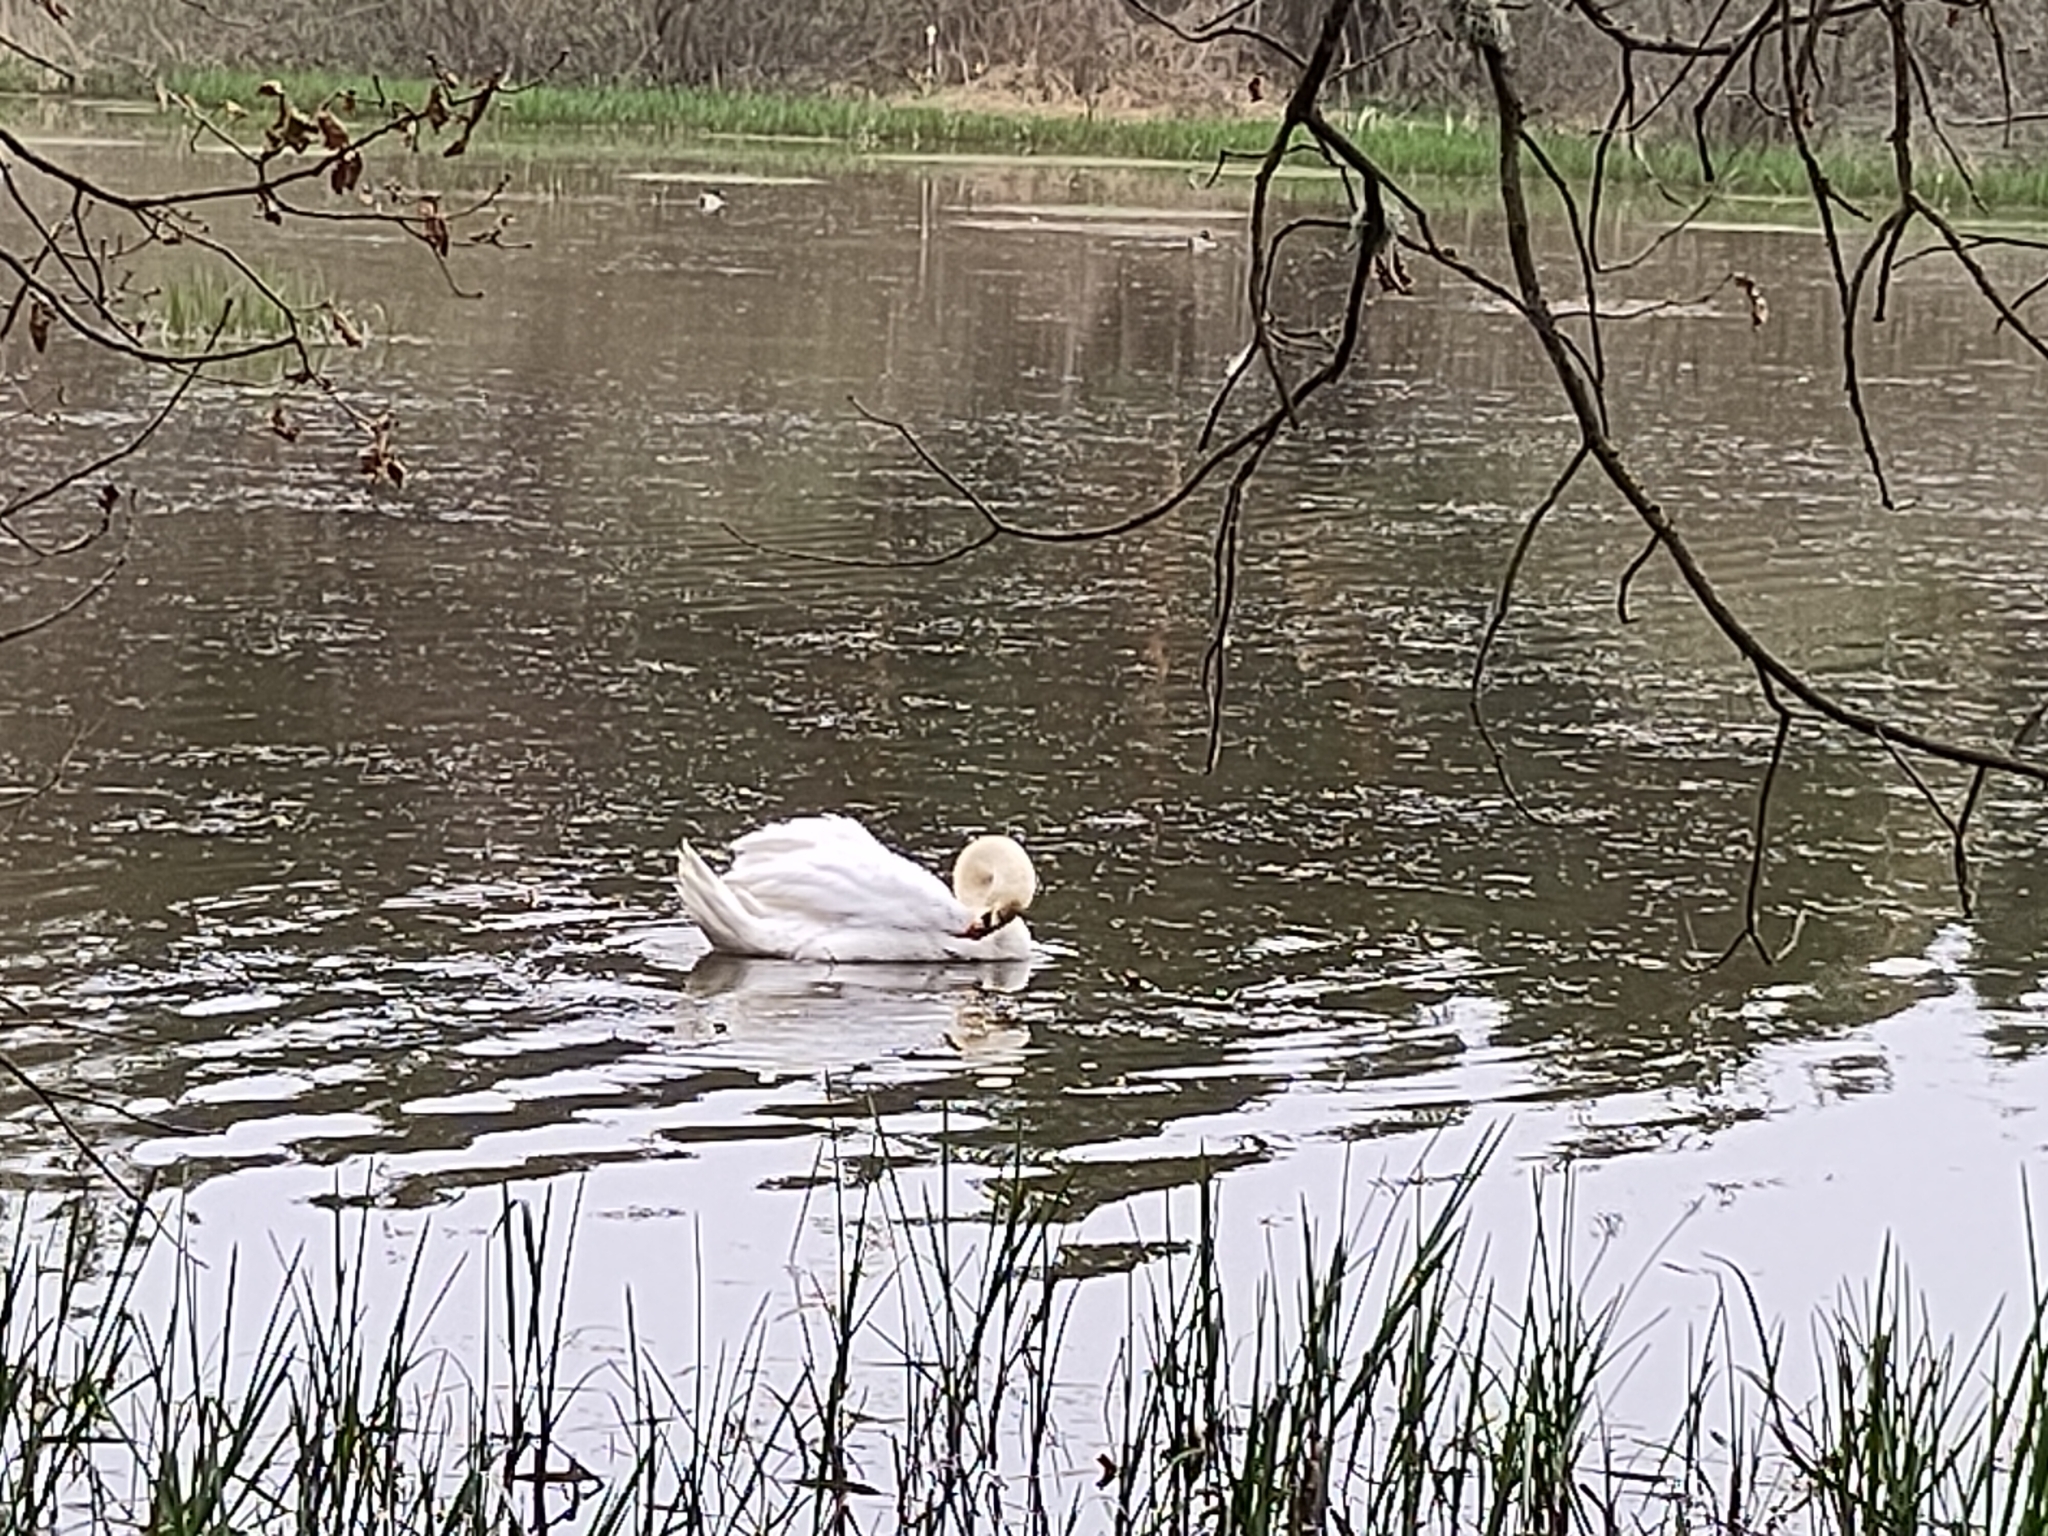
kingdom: Animalia
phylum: Chordata
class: Aves
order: Anseriformes
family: Anatidae
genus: Cygnus
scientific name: Cygnus olor
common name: Mute swan
